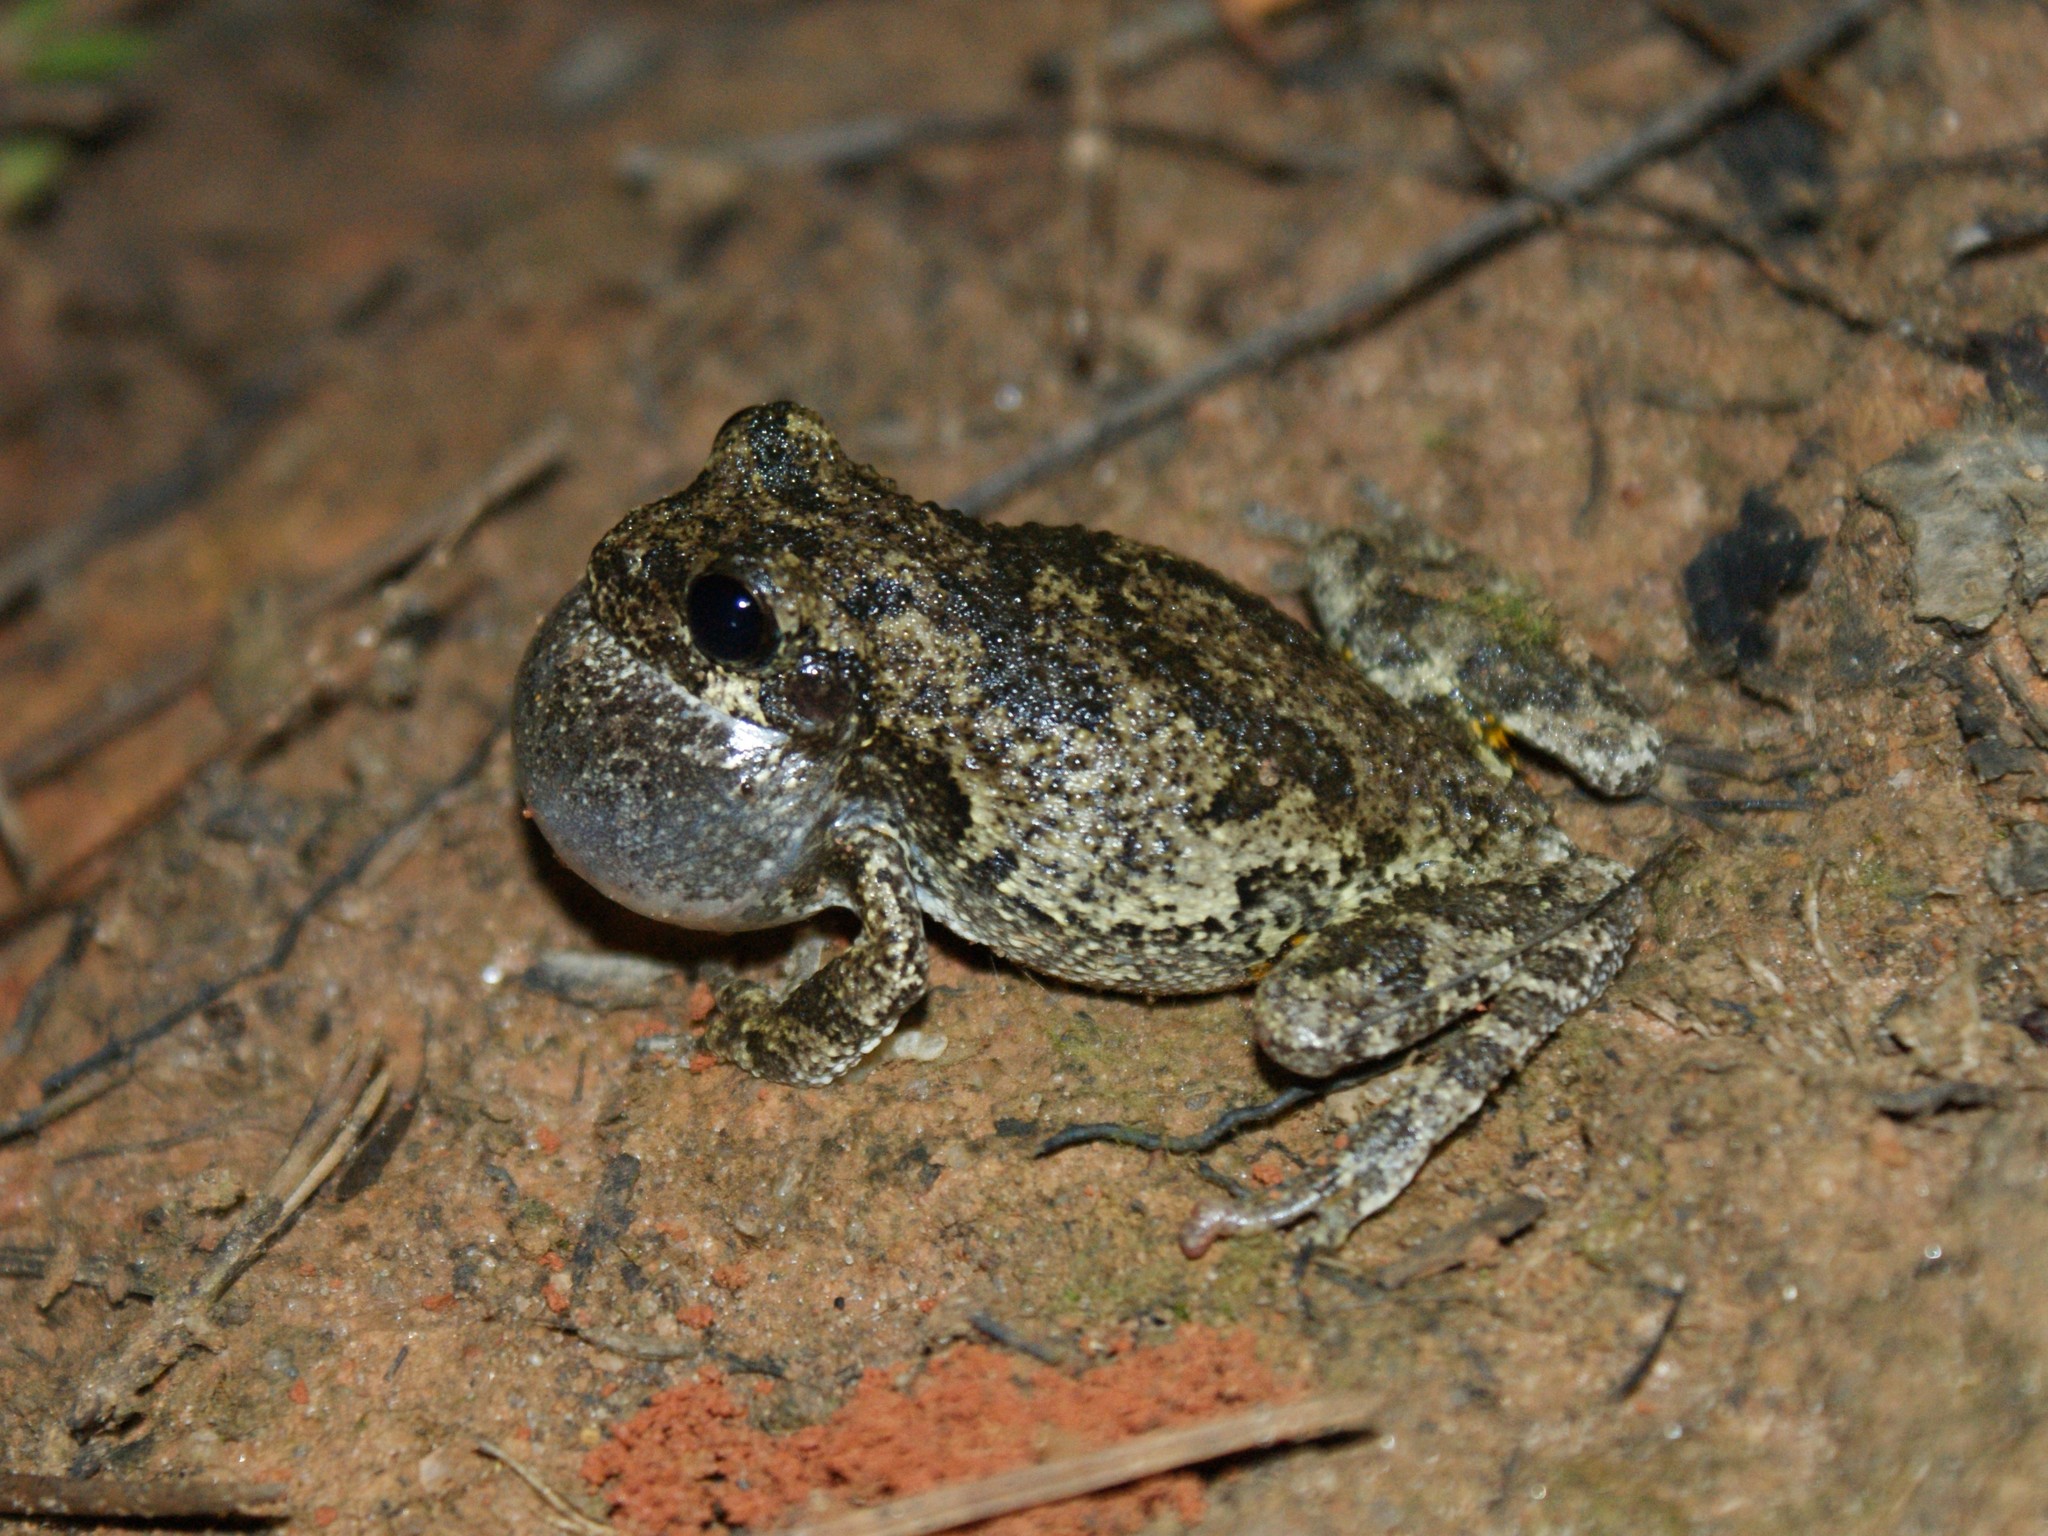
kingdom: Animalia
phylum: Chordata
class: Amphibia
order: Anura
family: Hylidae
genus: Dryophytes
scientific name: Dryophytes chrysoscelis
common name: Cope's gray treefrog
